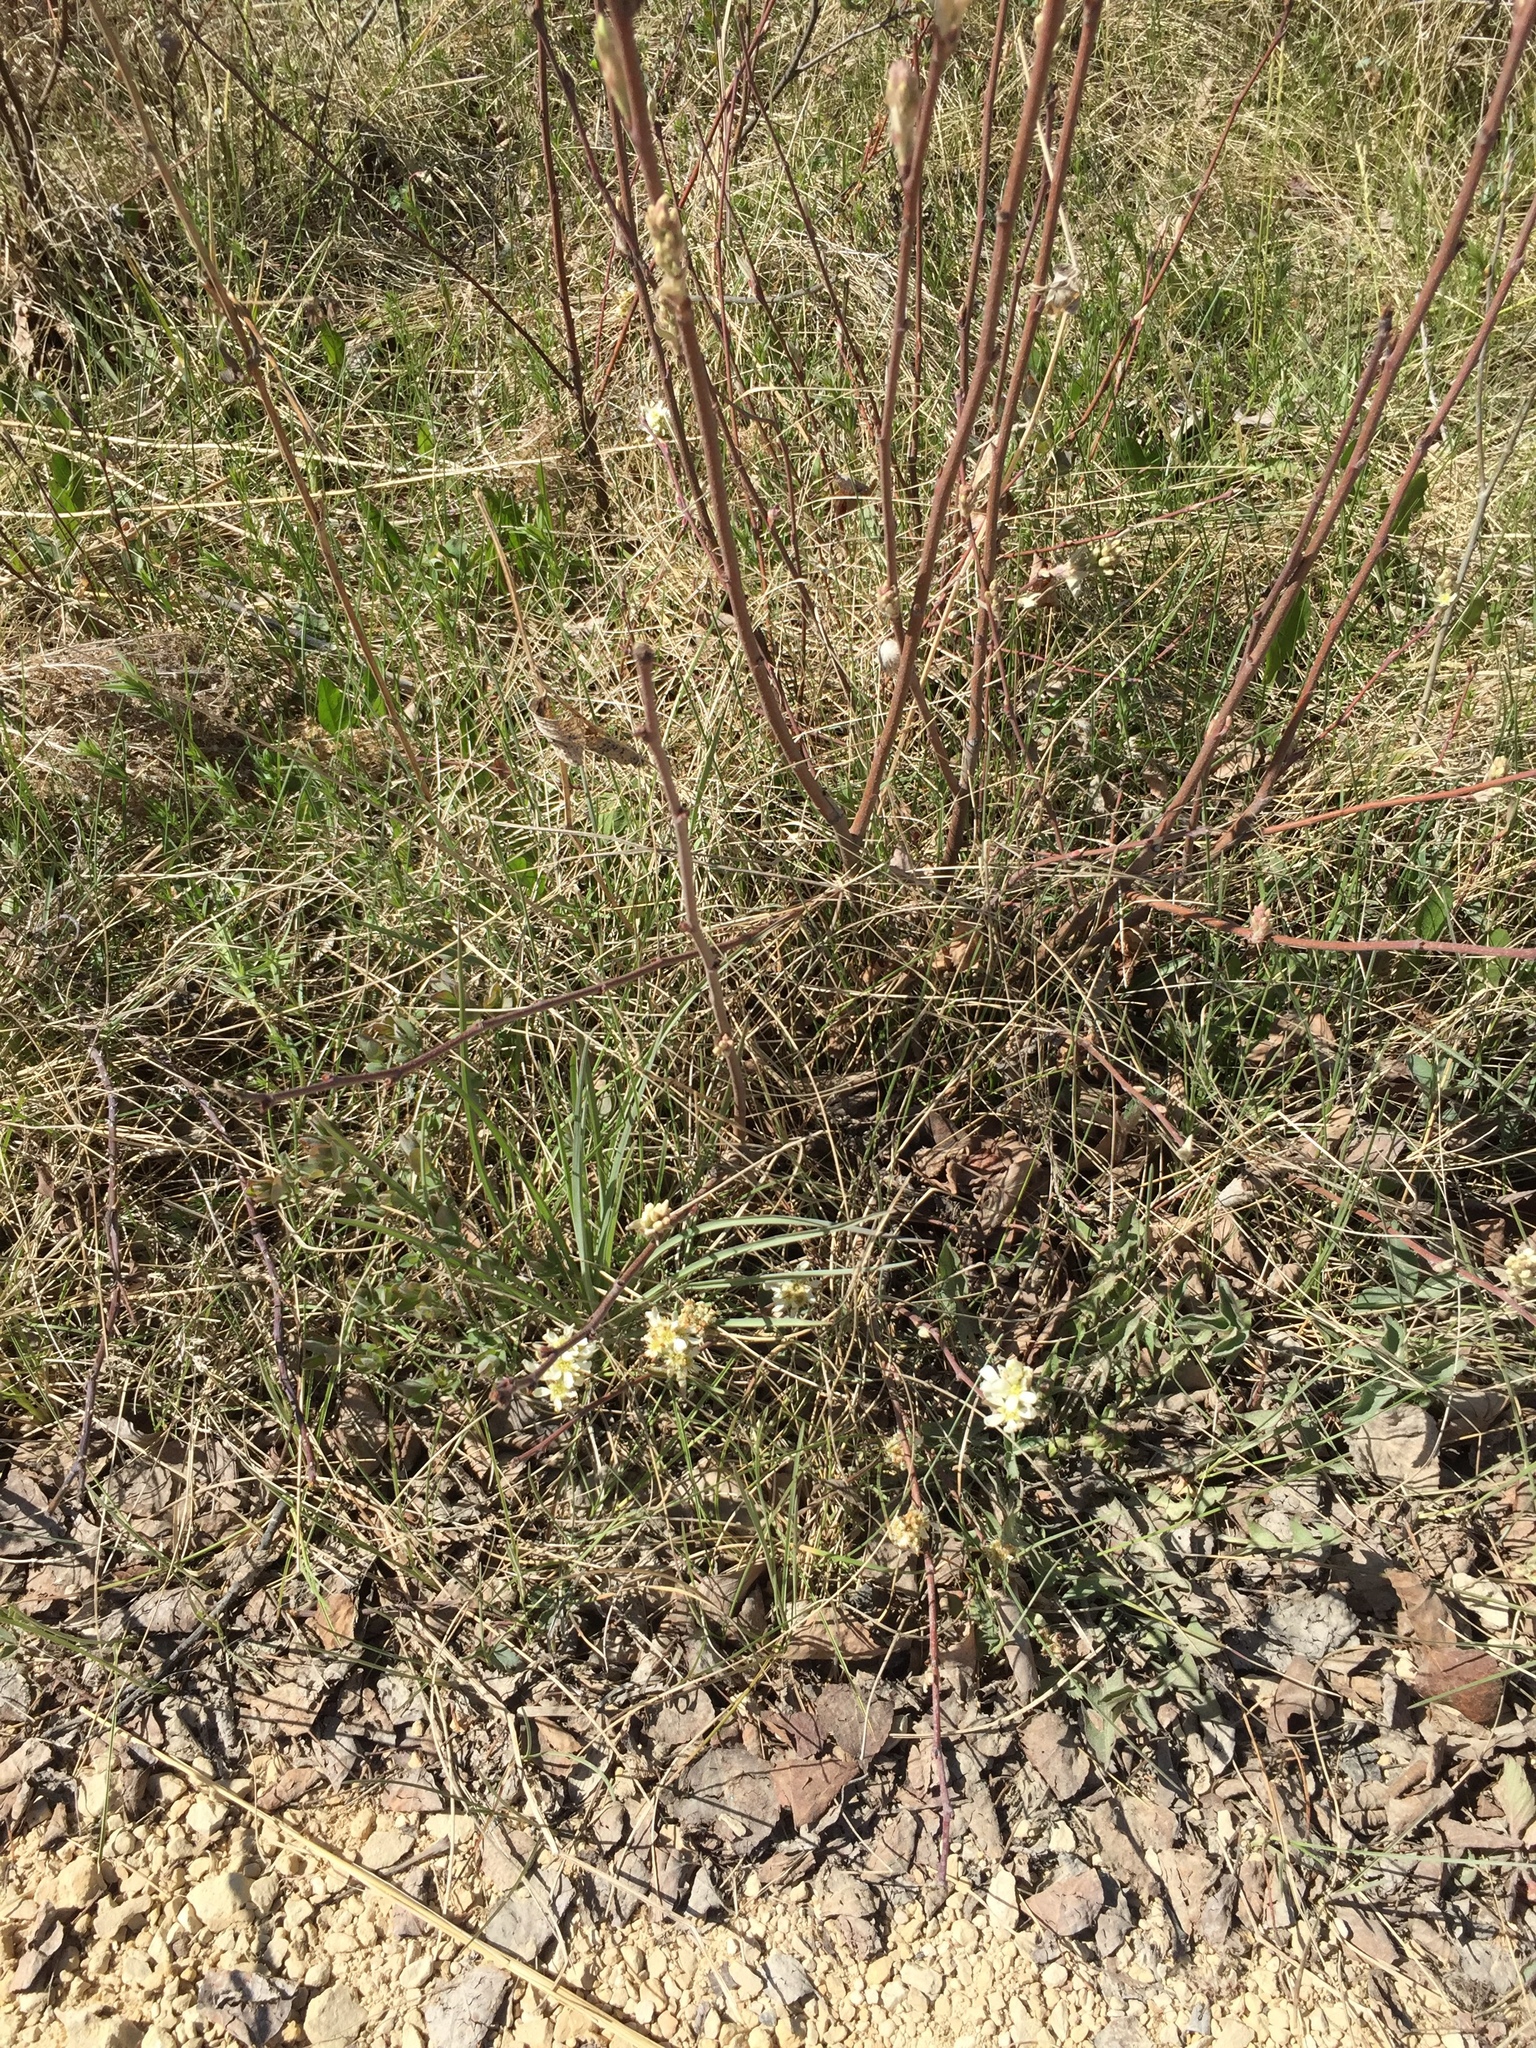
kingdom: Plantae
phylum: Tracheophyta
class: Magnoliopsida
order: Rosales
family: Rosaceae
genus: Amelanchier
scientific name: Amelanchier alnifolia
